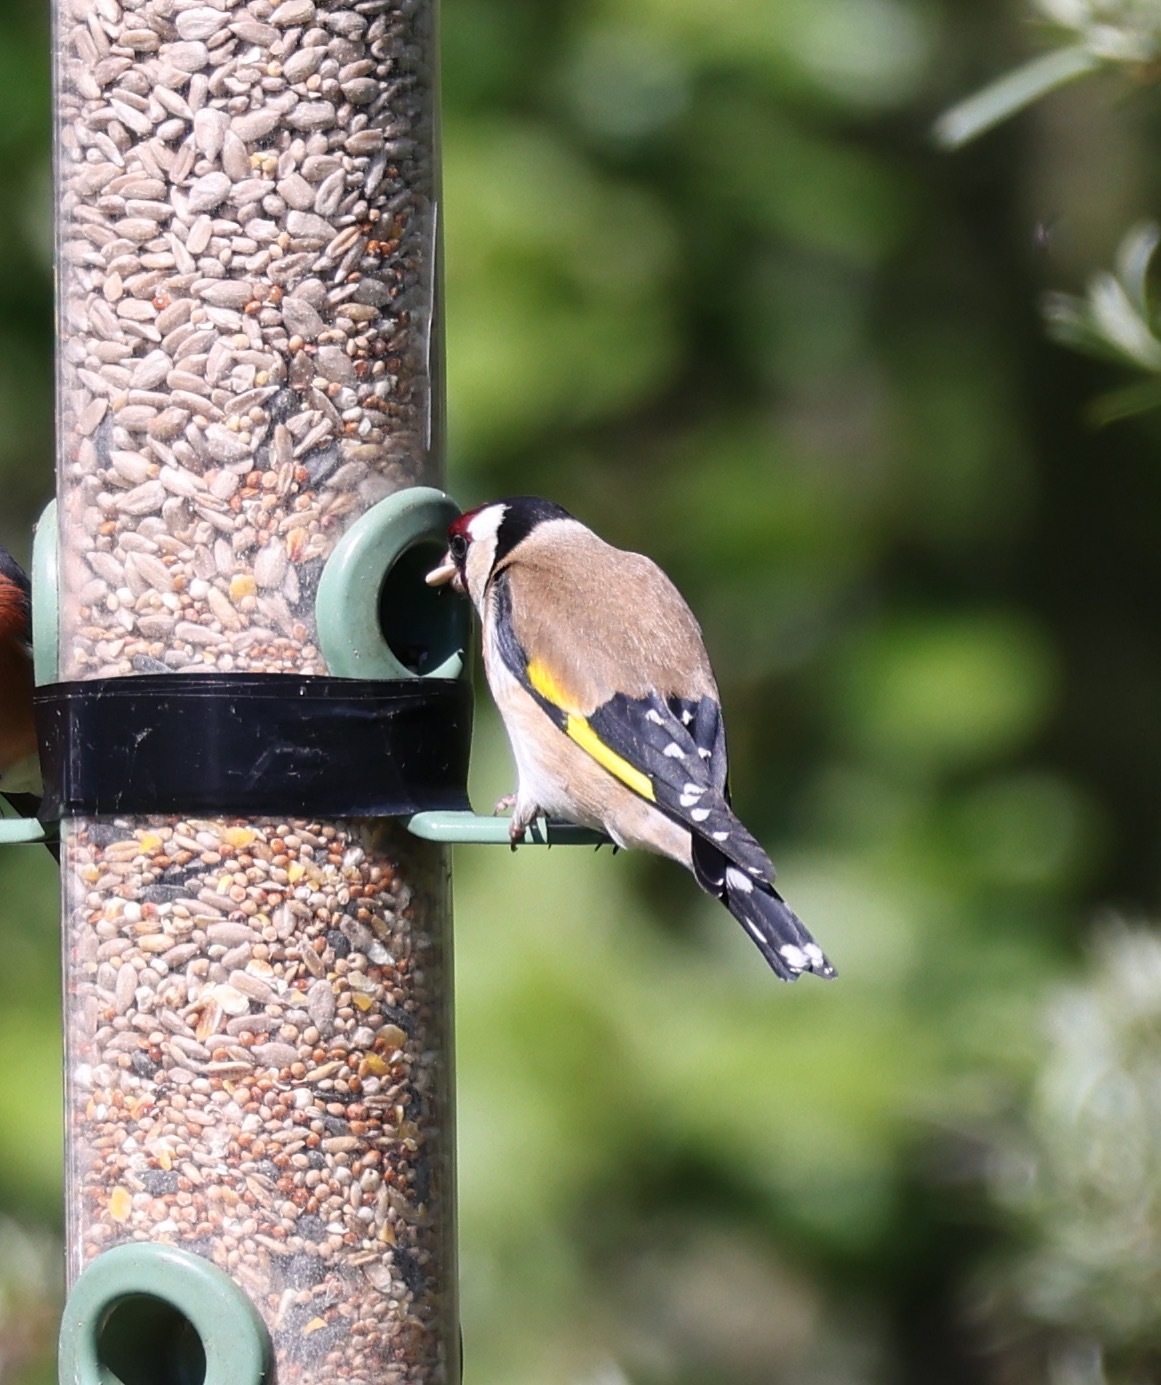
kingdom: Animalia
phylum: Chordata
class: Aves
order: Passeriformes
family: Fringillidae
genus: Carduelis
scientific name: Carduelis carduelis
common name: European goldfinch
